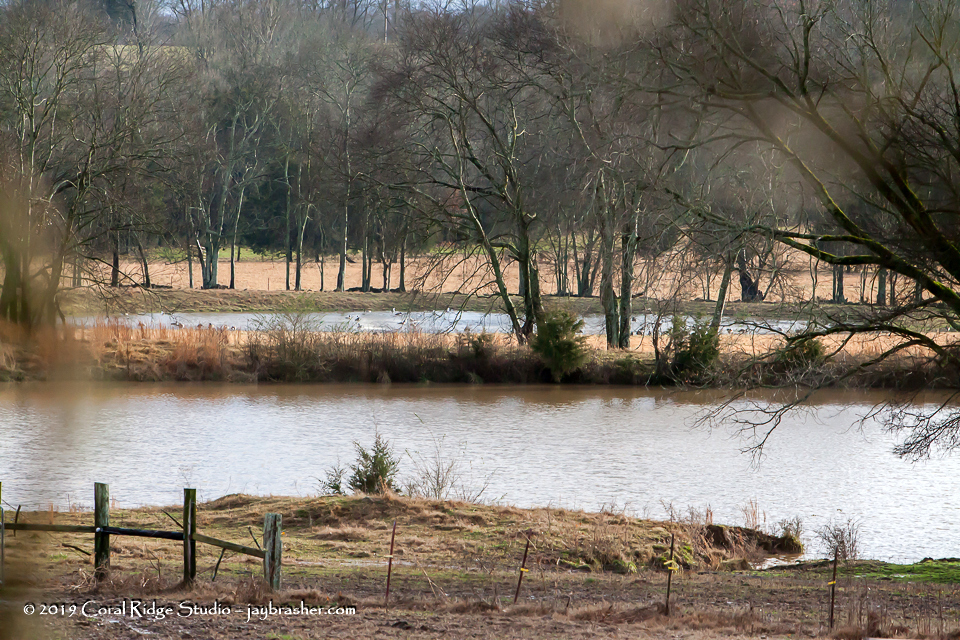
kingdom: Animalia
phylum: Chordata
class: Aves
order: Anseriformes
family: Anatidae
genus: Branta
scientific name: Branta canadensis
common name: Canada goose
